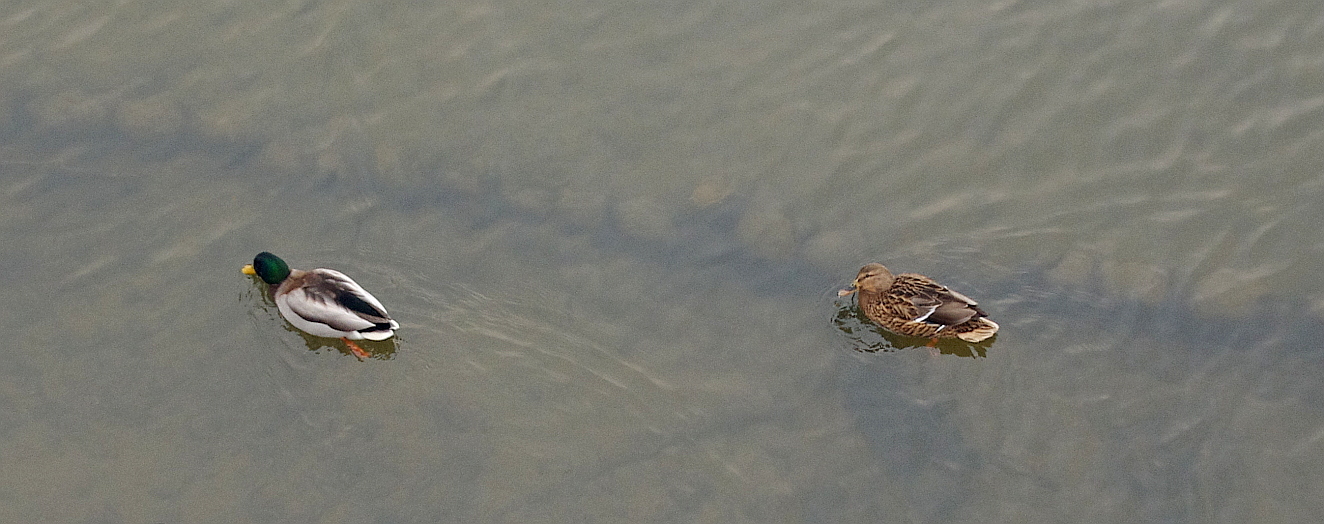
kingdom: Animalia
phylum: Chordata
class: Aves
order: Anseriformes
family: Anatidae
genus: Anas
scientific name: Anas platyrhynchos
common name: Mallard
